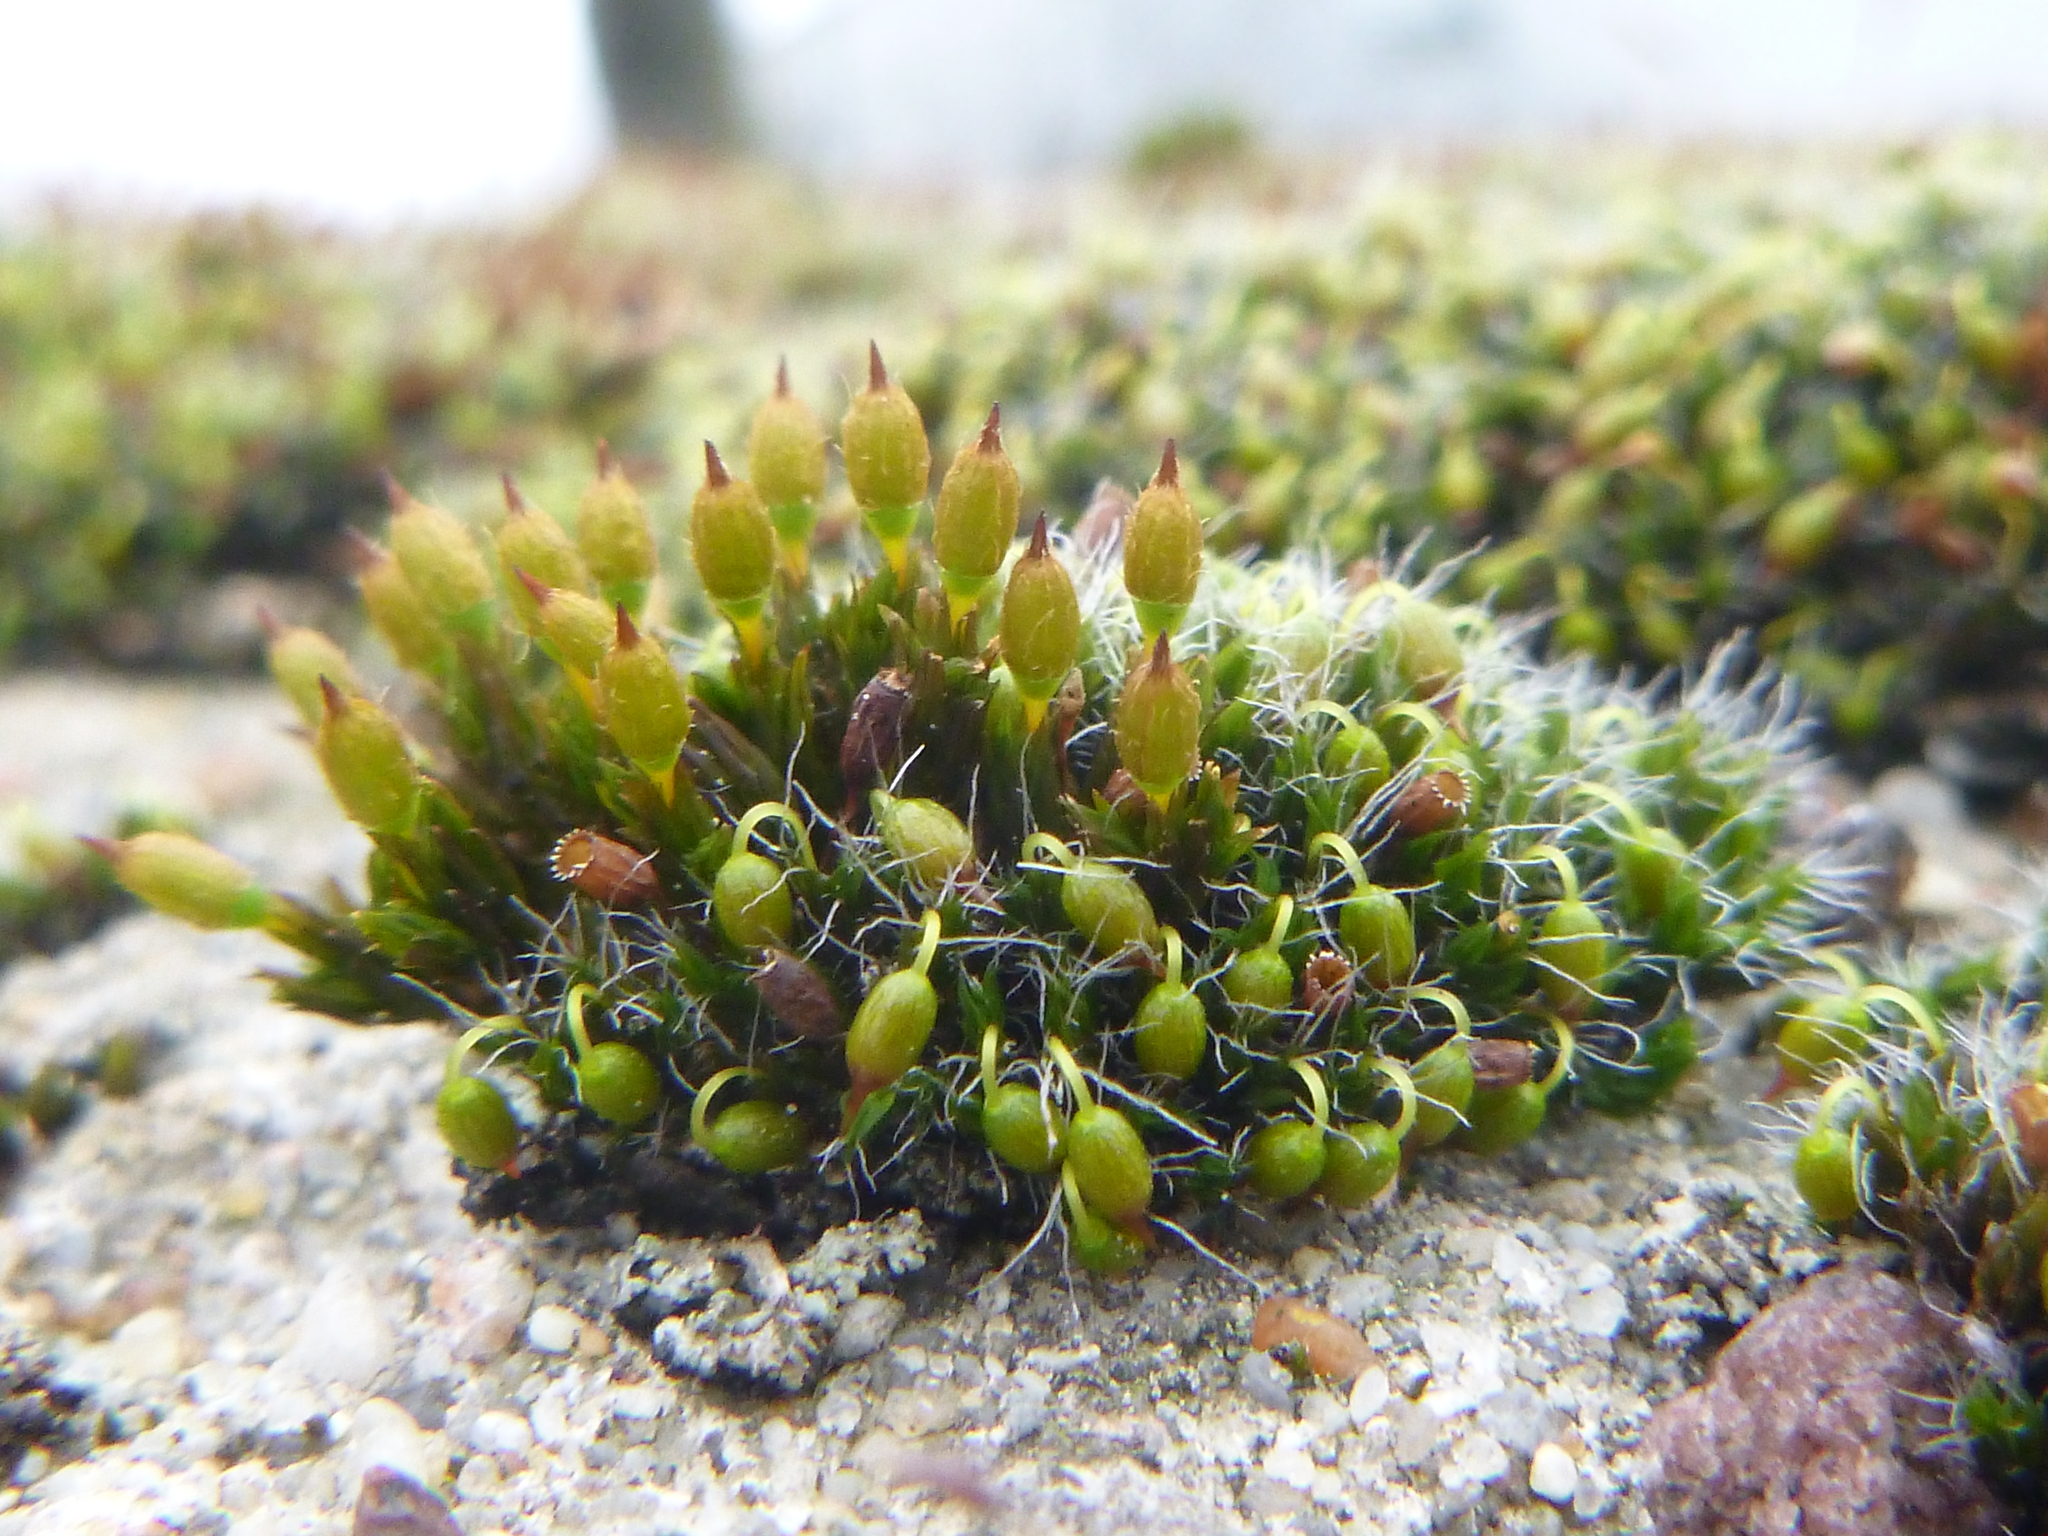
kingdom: Plantae
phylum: Bryophyta
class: Bryopsida
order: Orthotrichales
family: Orthotrichaceae
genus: Orthotrichum
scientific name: Orthotrichum anomalum
